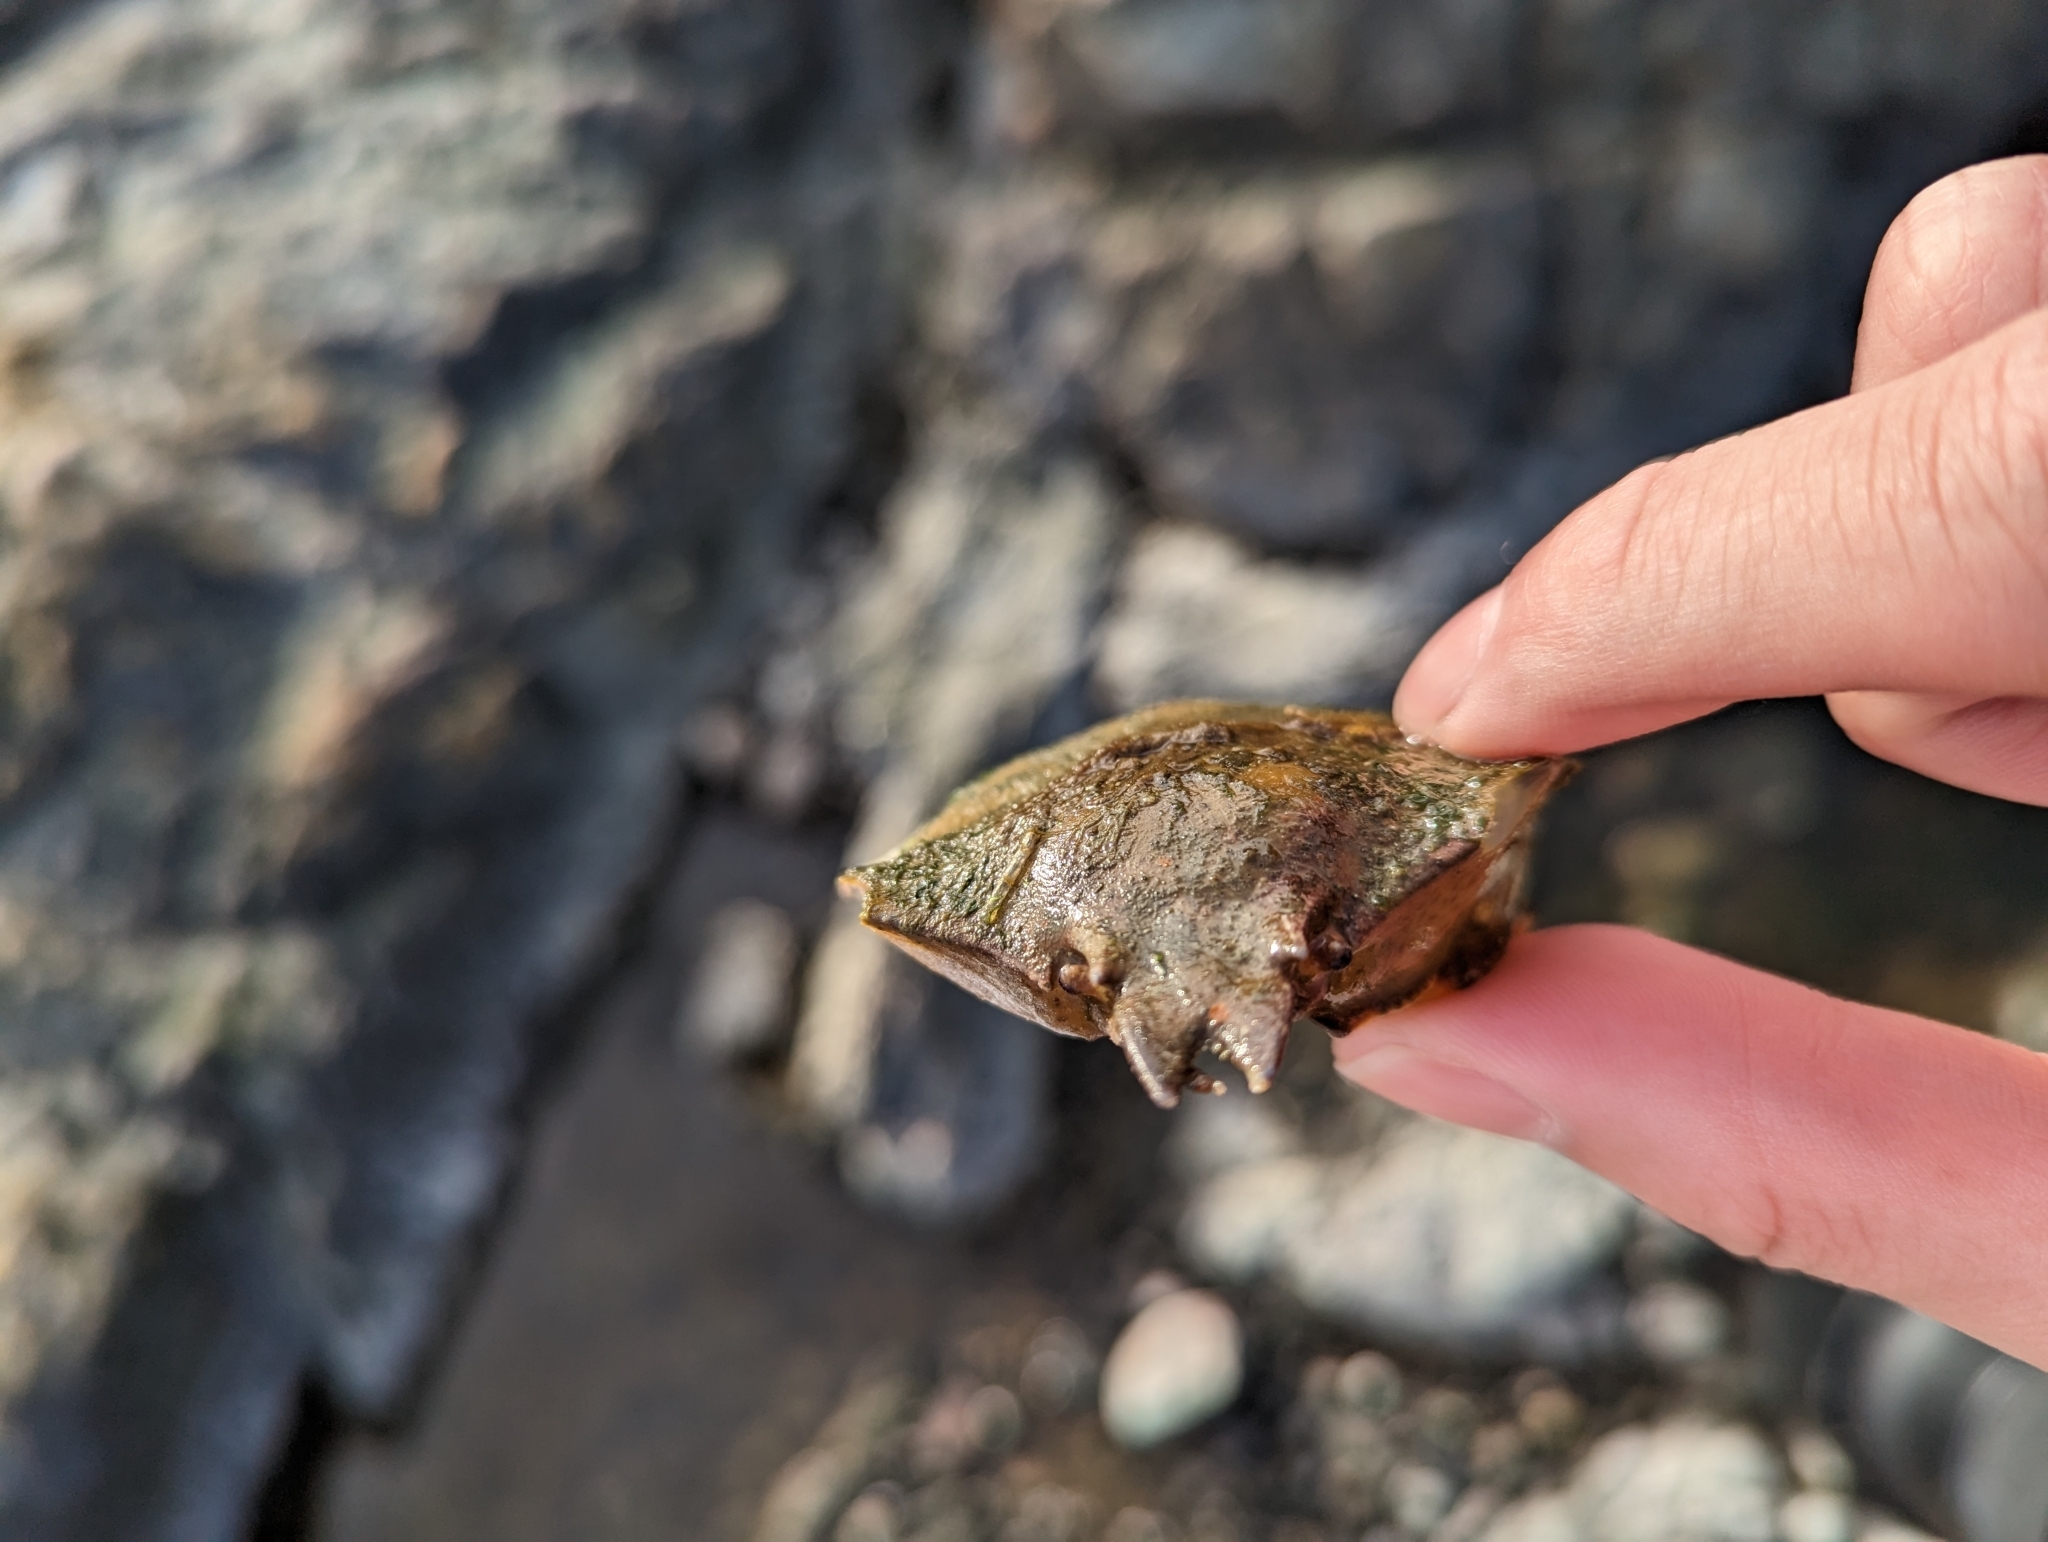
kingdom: Animalia
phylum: Arthropoda
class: Malacostraca
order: Decapoda
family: Epialtidae
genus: Pugettia
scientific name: Pugettia producta
